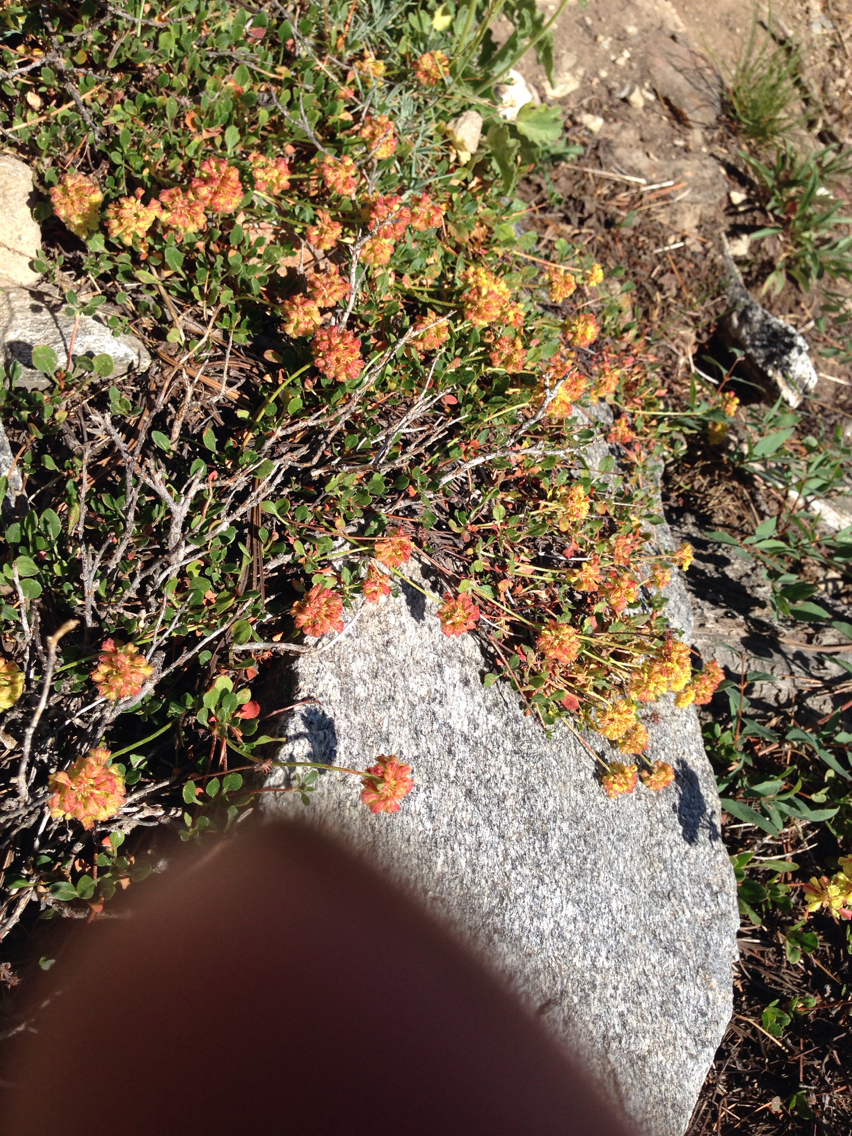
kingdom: Plantae
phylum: Tracheophyta
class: Magnoliopsida
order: Caryophyllales
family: Polygonaceae
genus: Eriogonum
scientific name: Eriogonum umbellatum
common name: Sulfur-buckwheat
